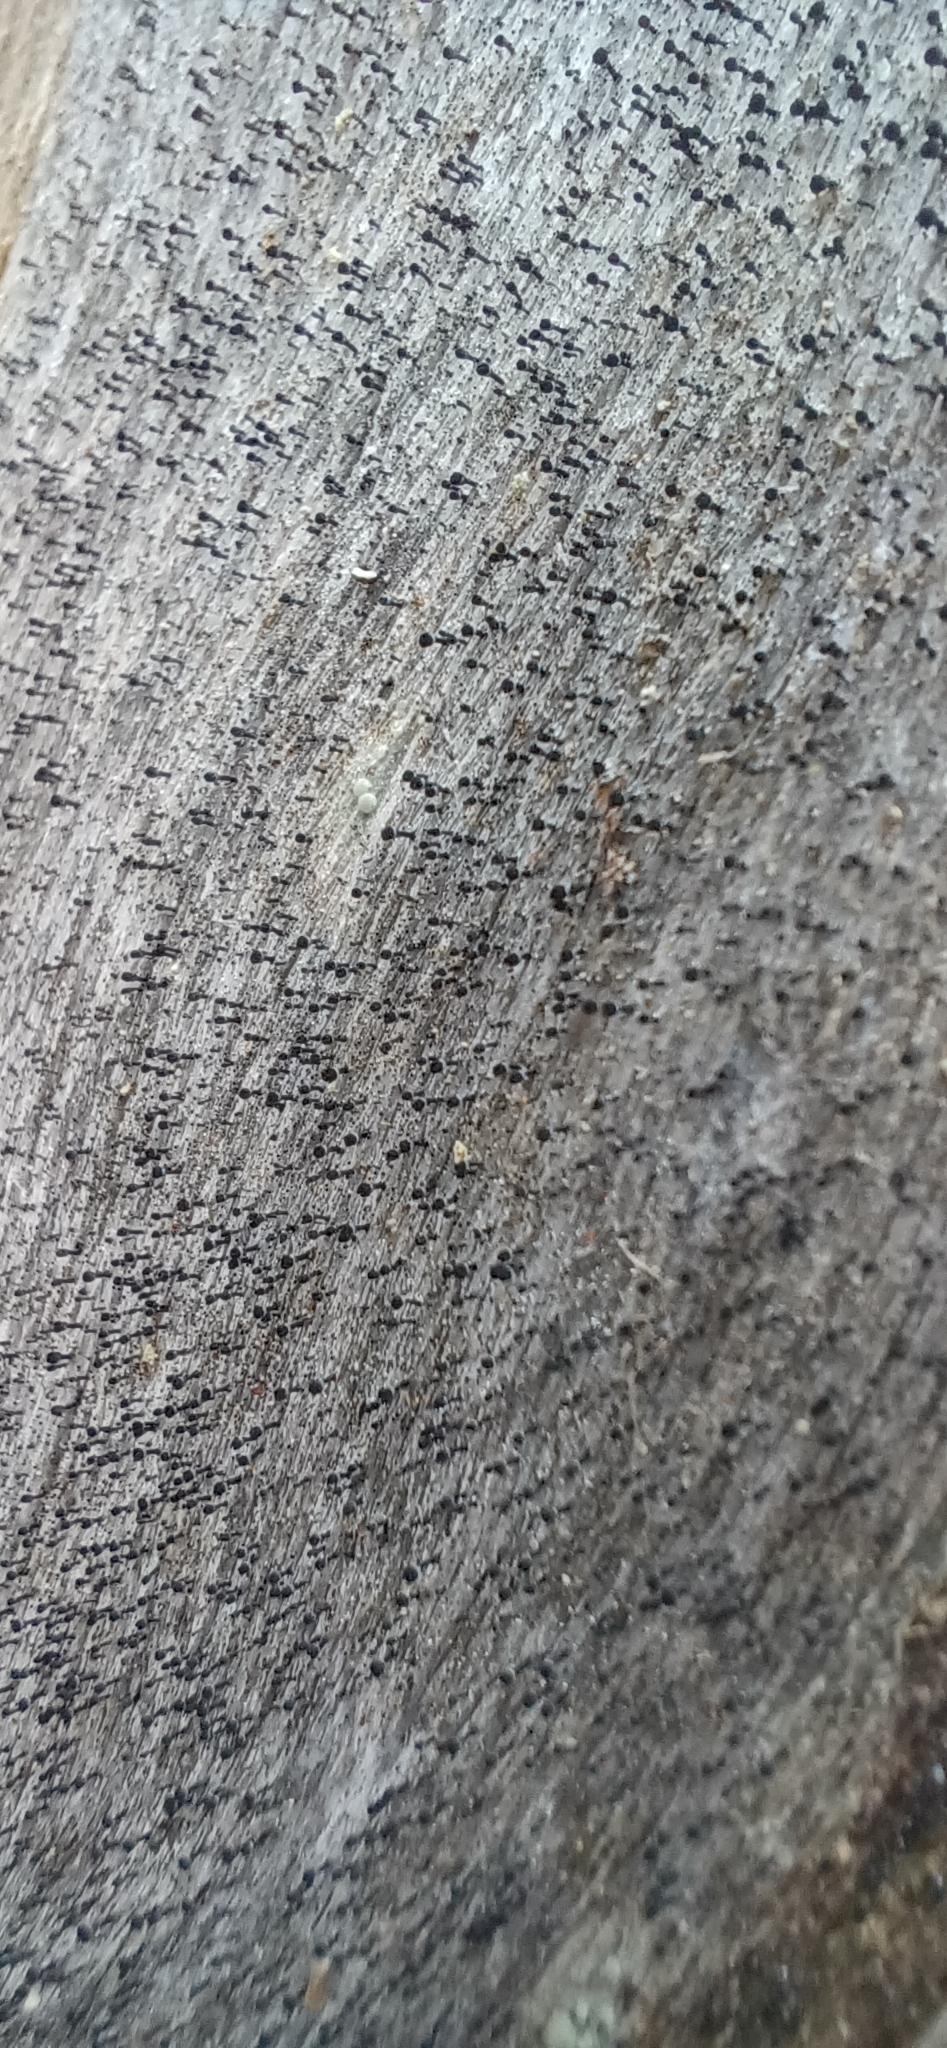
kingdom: Fungi
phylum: Ascomycota
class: Lecanoromycetes
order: Caliciales
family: Caliciaceae
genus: Calicium
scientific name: Calicium glaucellum
